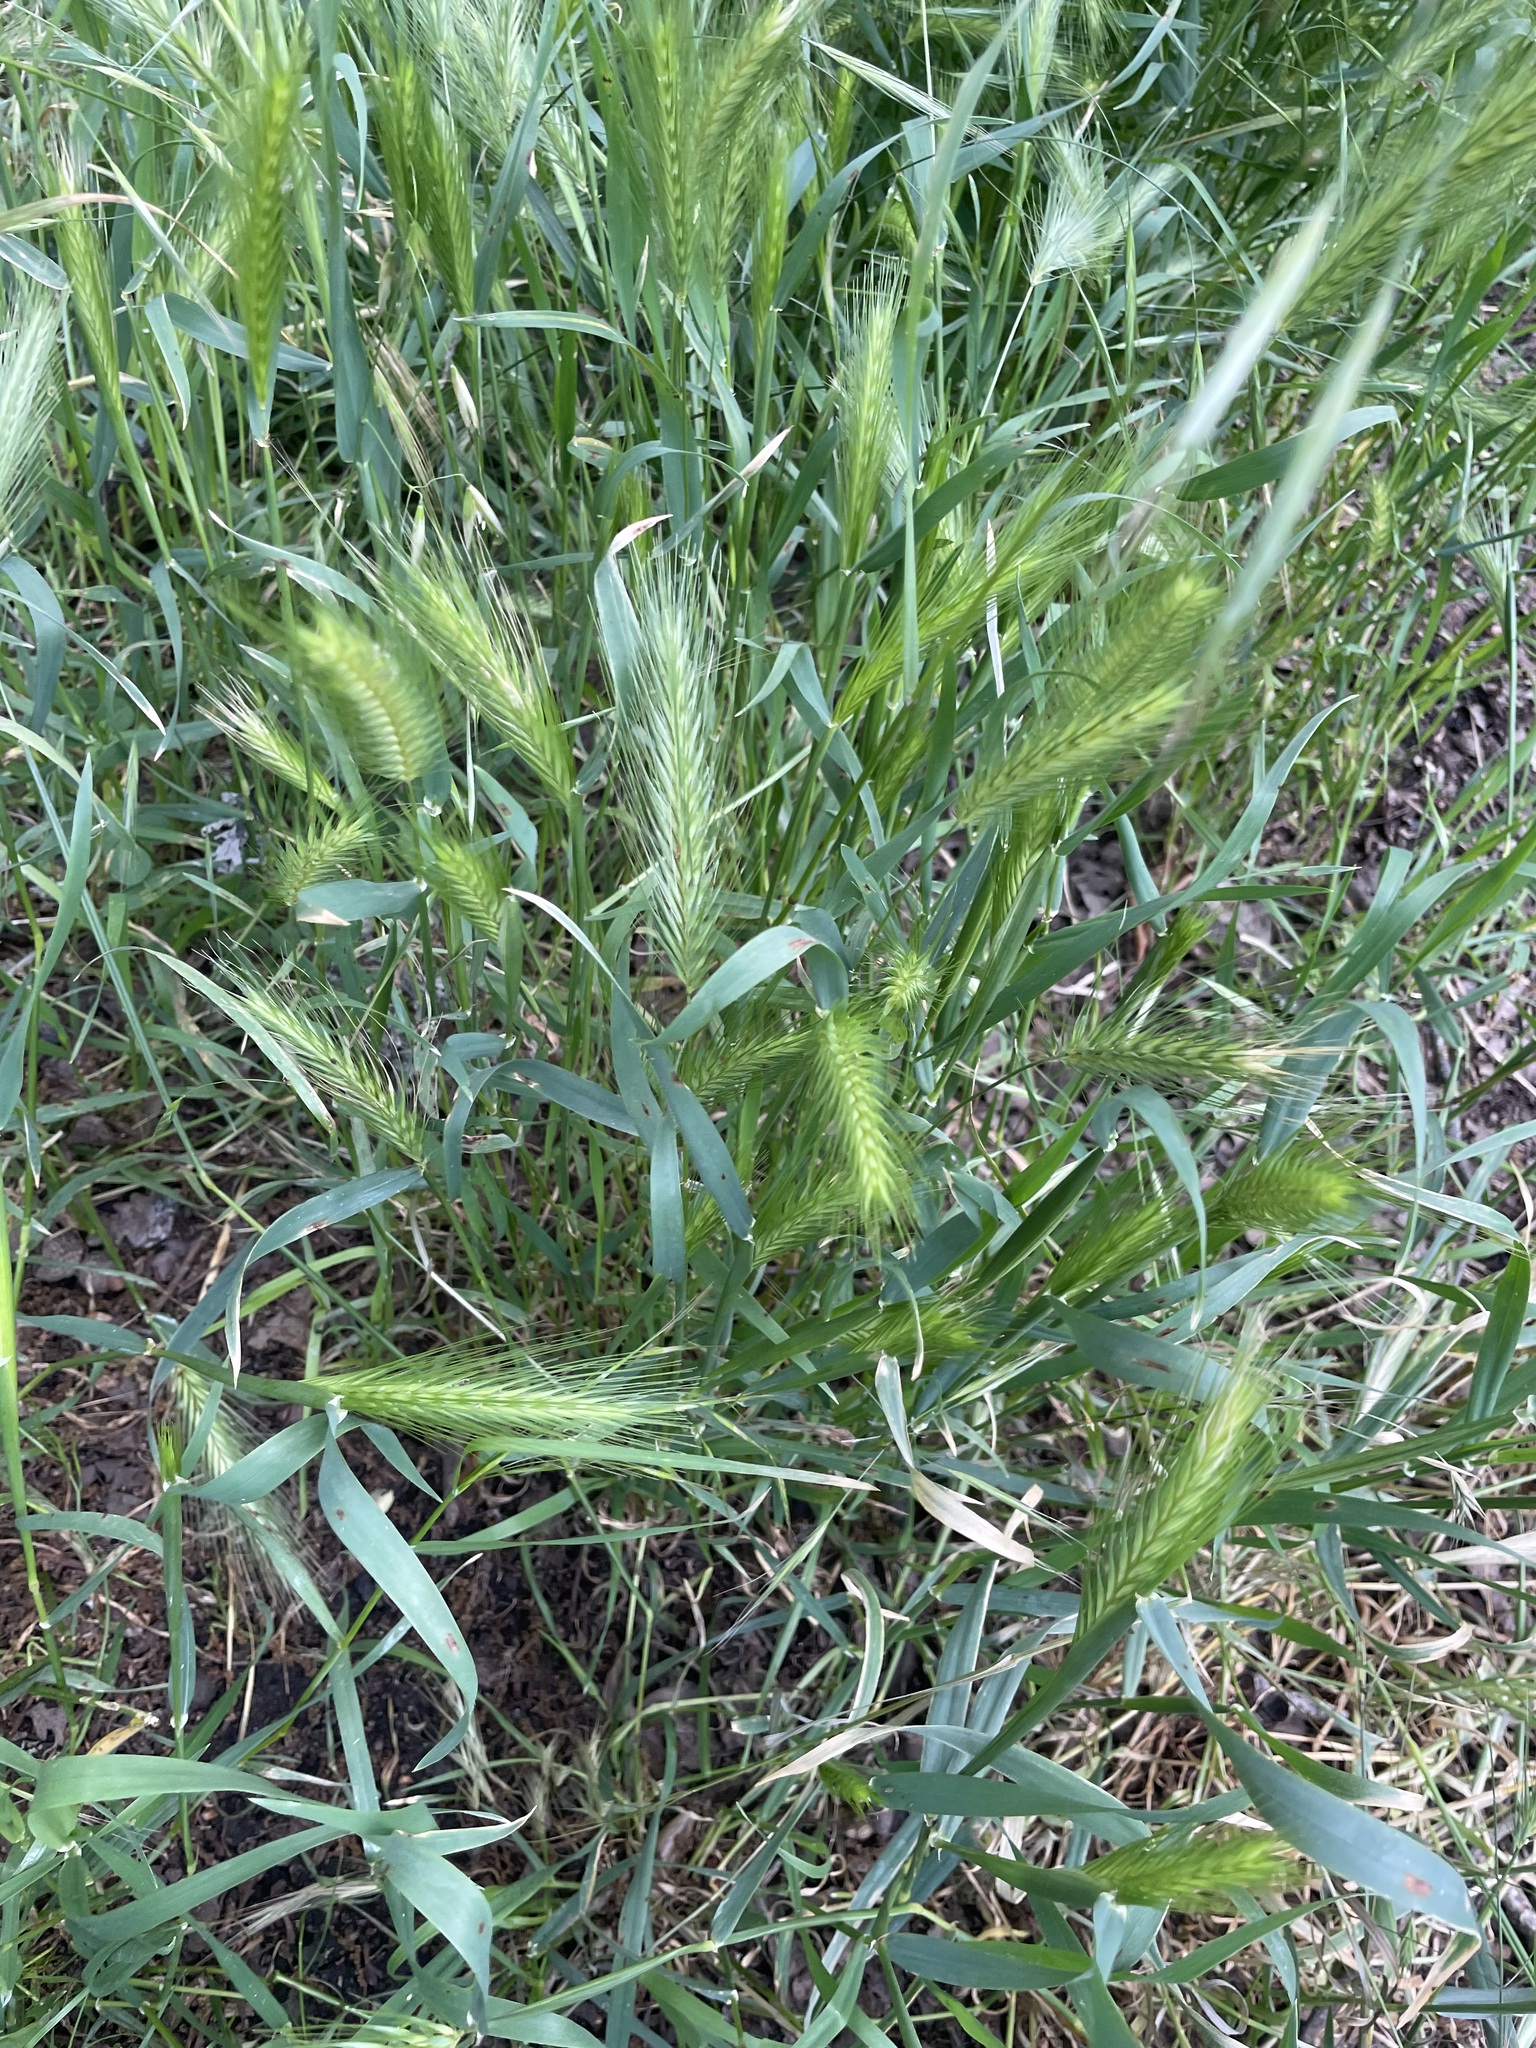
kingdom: Plantae
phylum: Tracheophyta
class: Liliopsida
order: Poales
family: Poaceae
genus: Hordeum
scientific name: Hordeum murinum
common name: Wall barley
